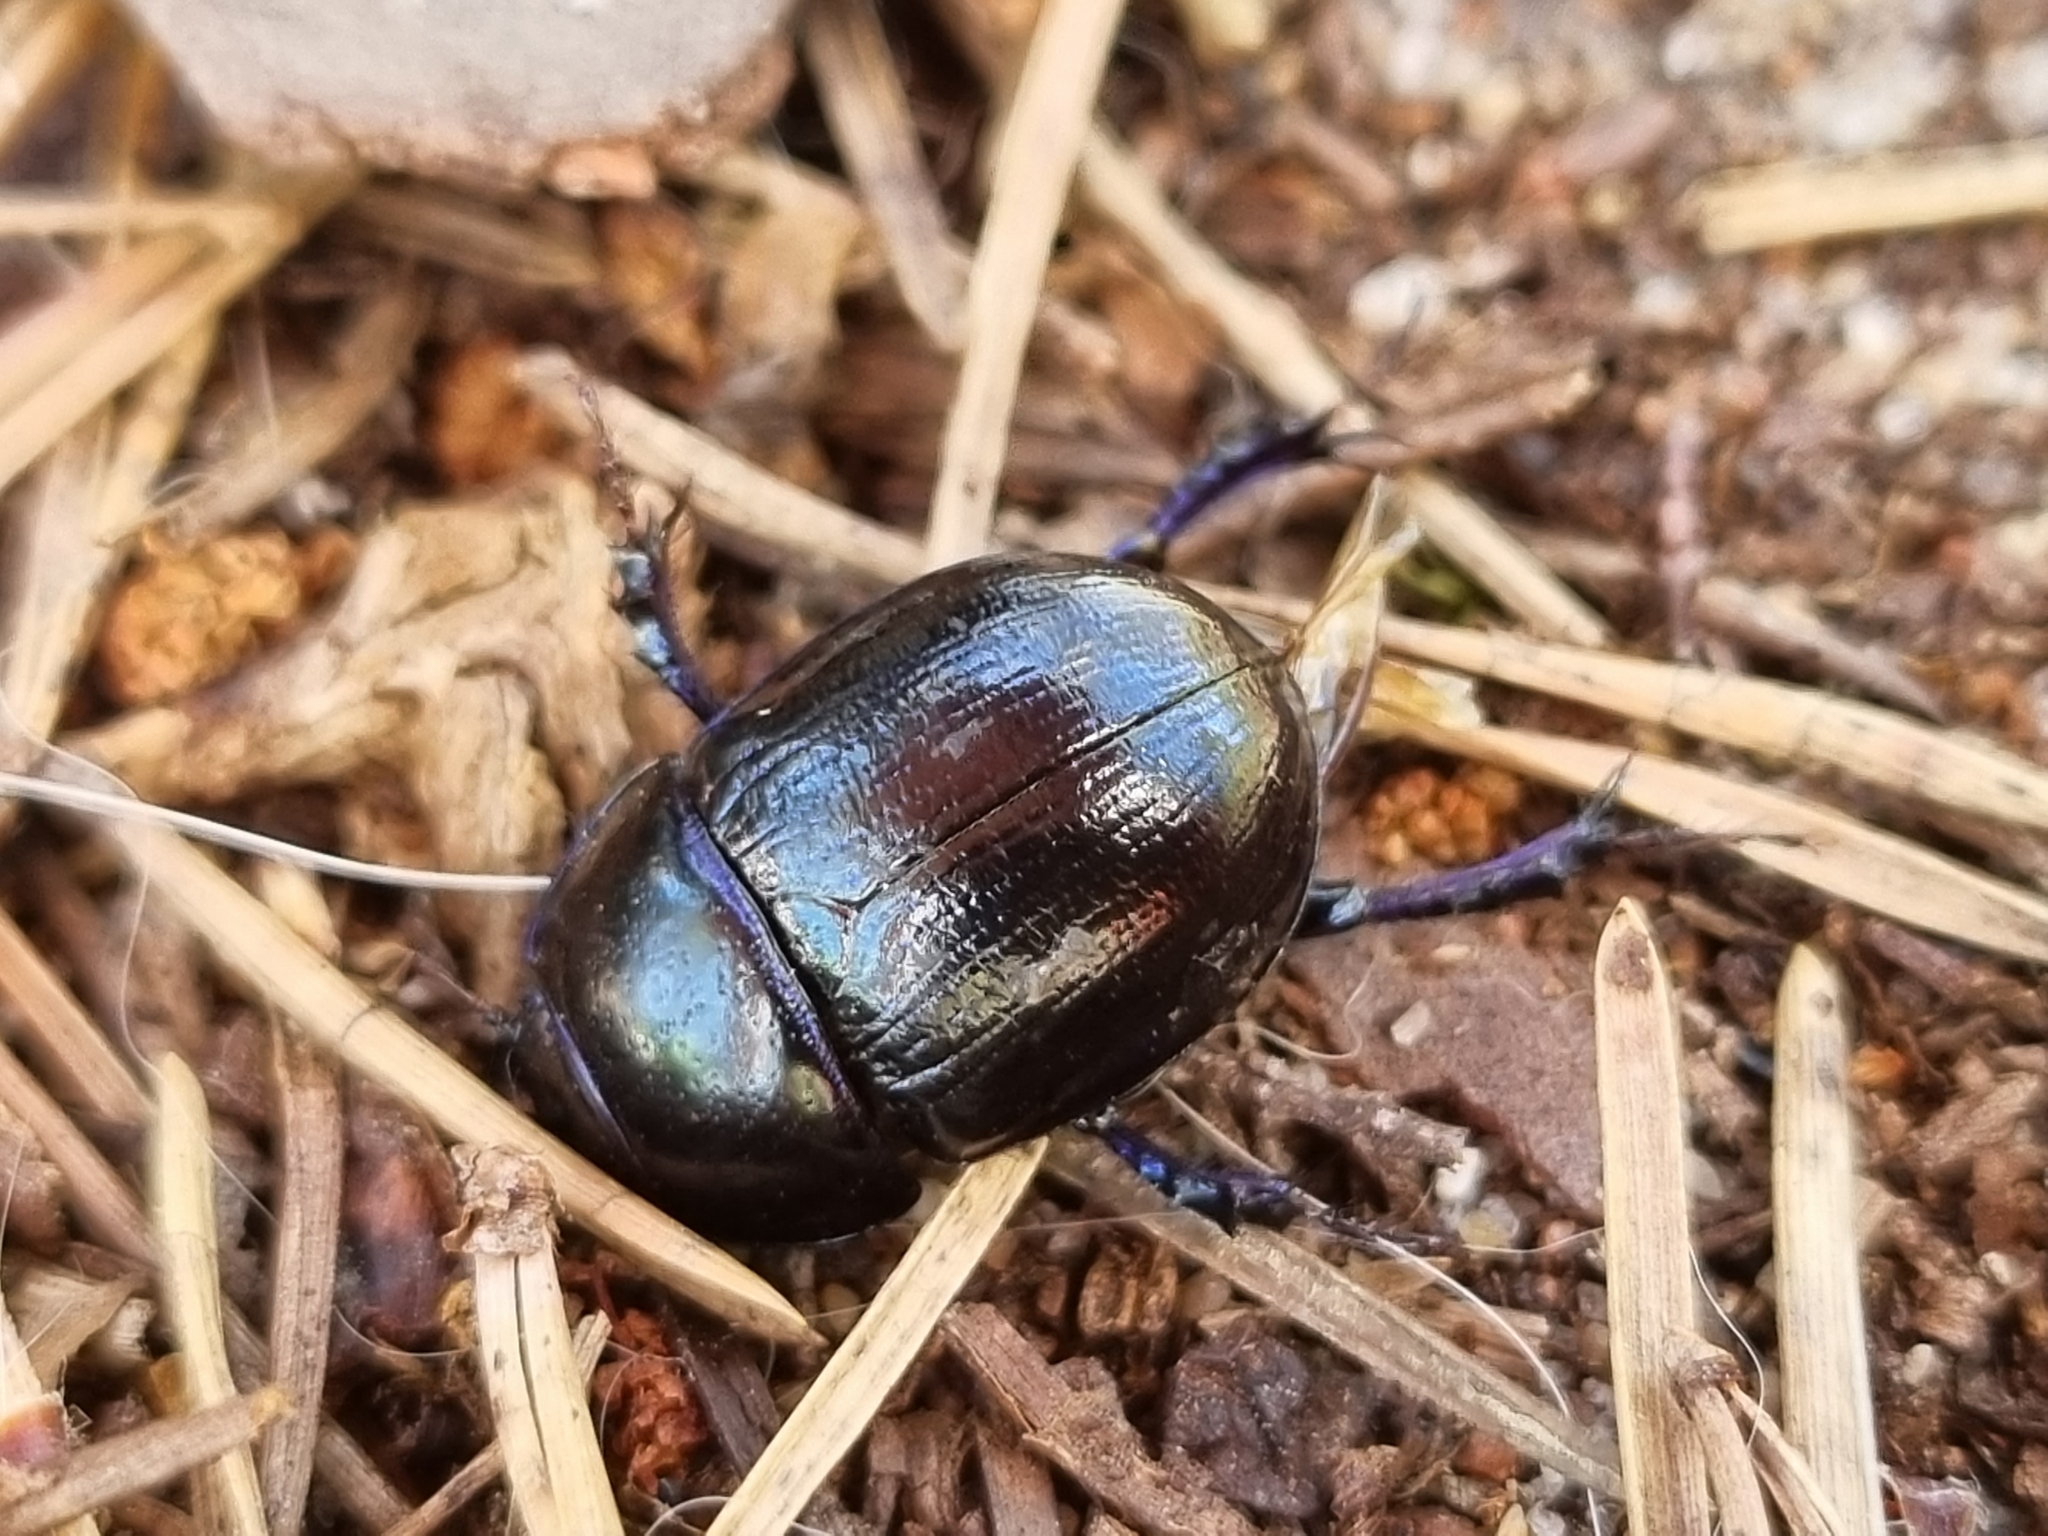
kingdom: Animalia
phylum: Arthropoda
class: Insecta
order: Coleoptera
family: Geotrupidae
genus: Anoplotrupes
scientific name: Anoplotrupes stercorosus
